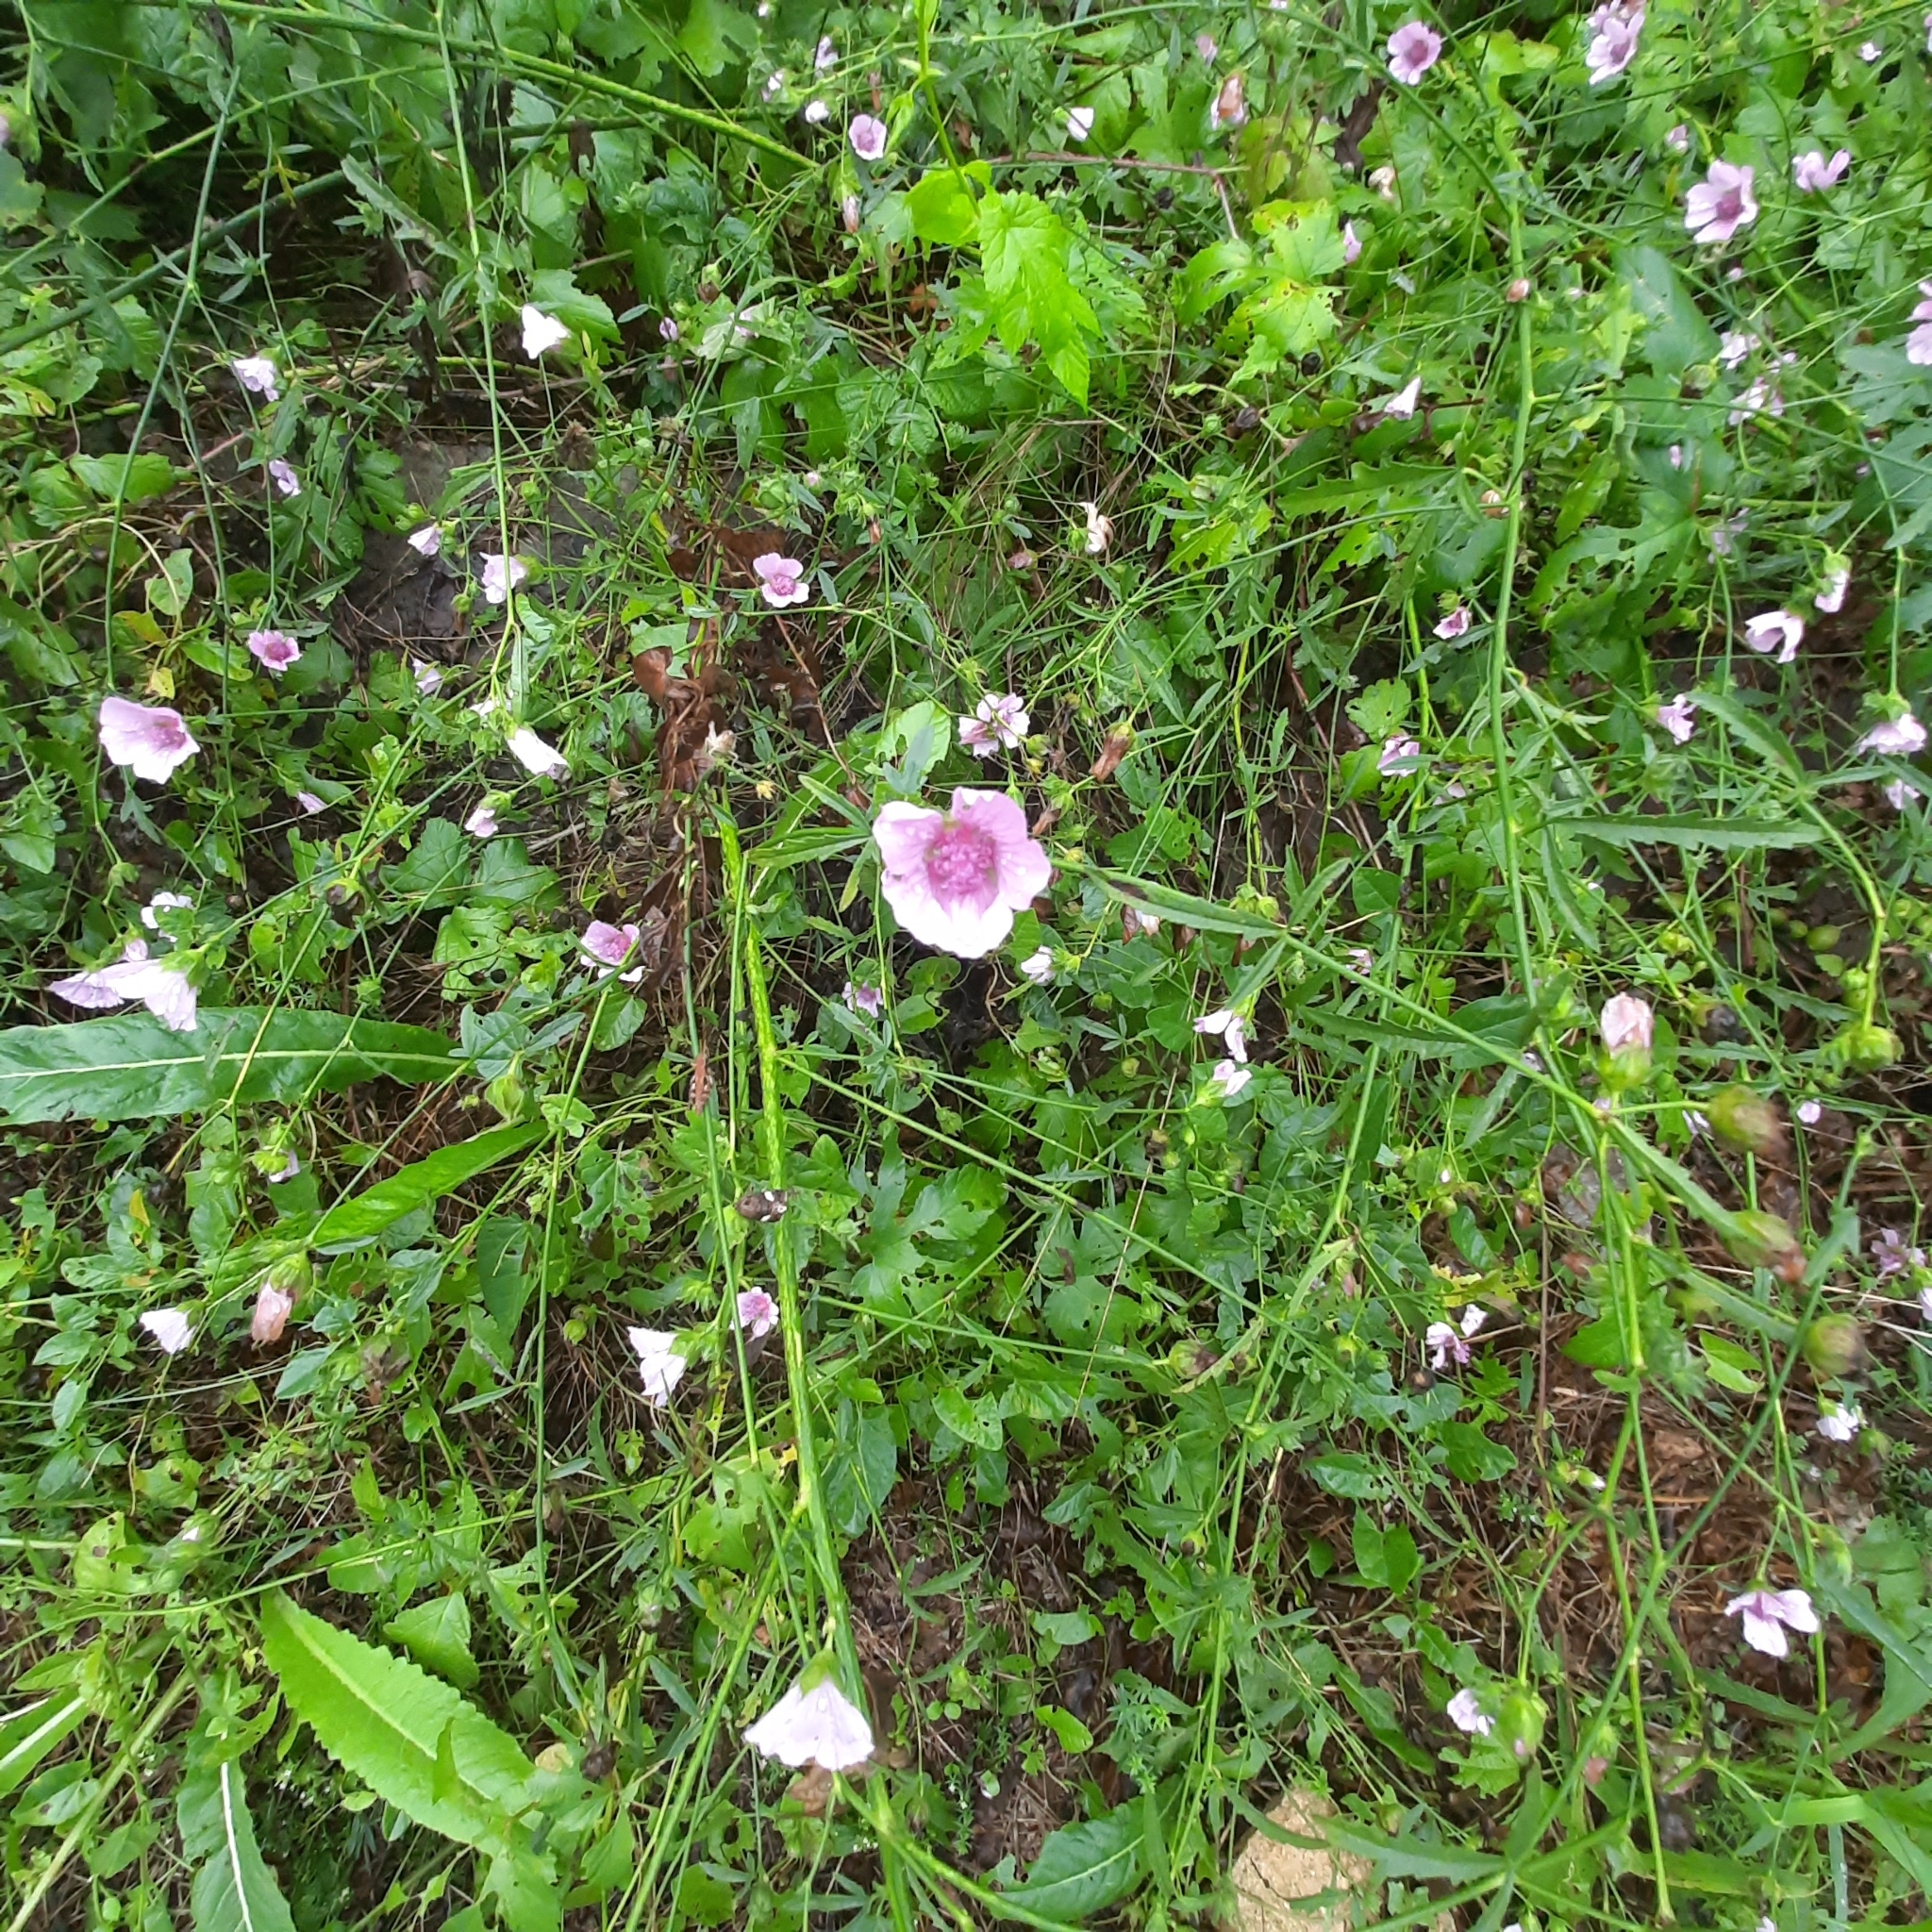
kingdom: Plantae
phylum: Tracheophyta
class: Magnoliopsida
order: Malvales
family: Malvaceae
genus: Althaea
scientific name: Althaea cannabina
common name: Palm-leaf marshmallow
